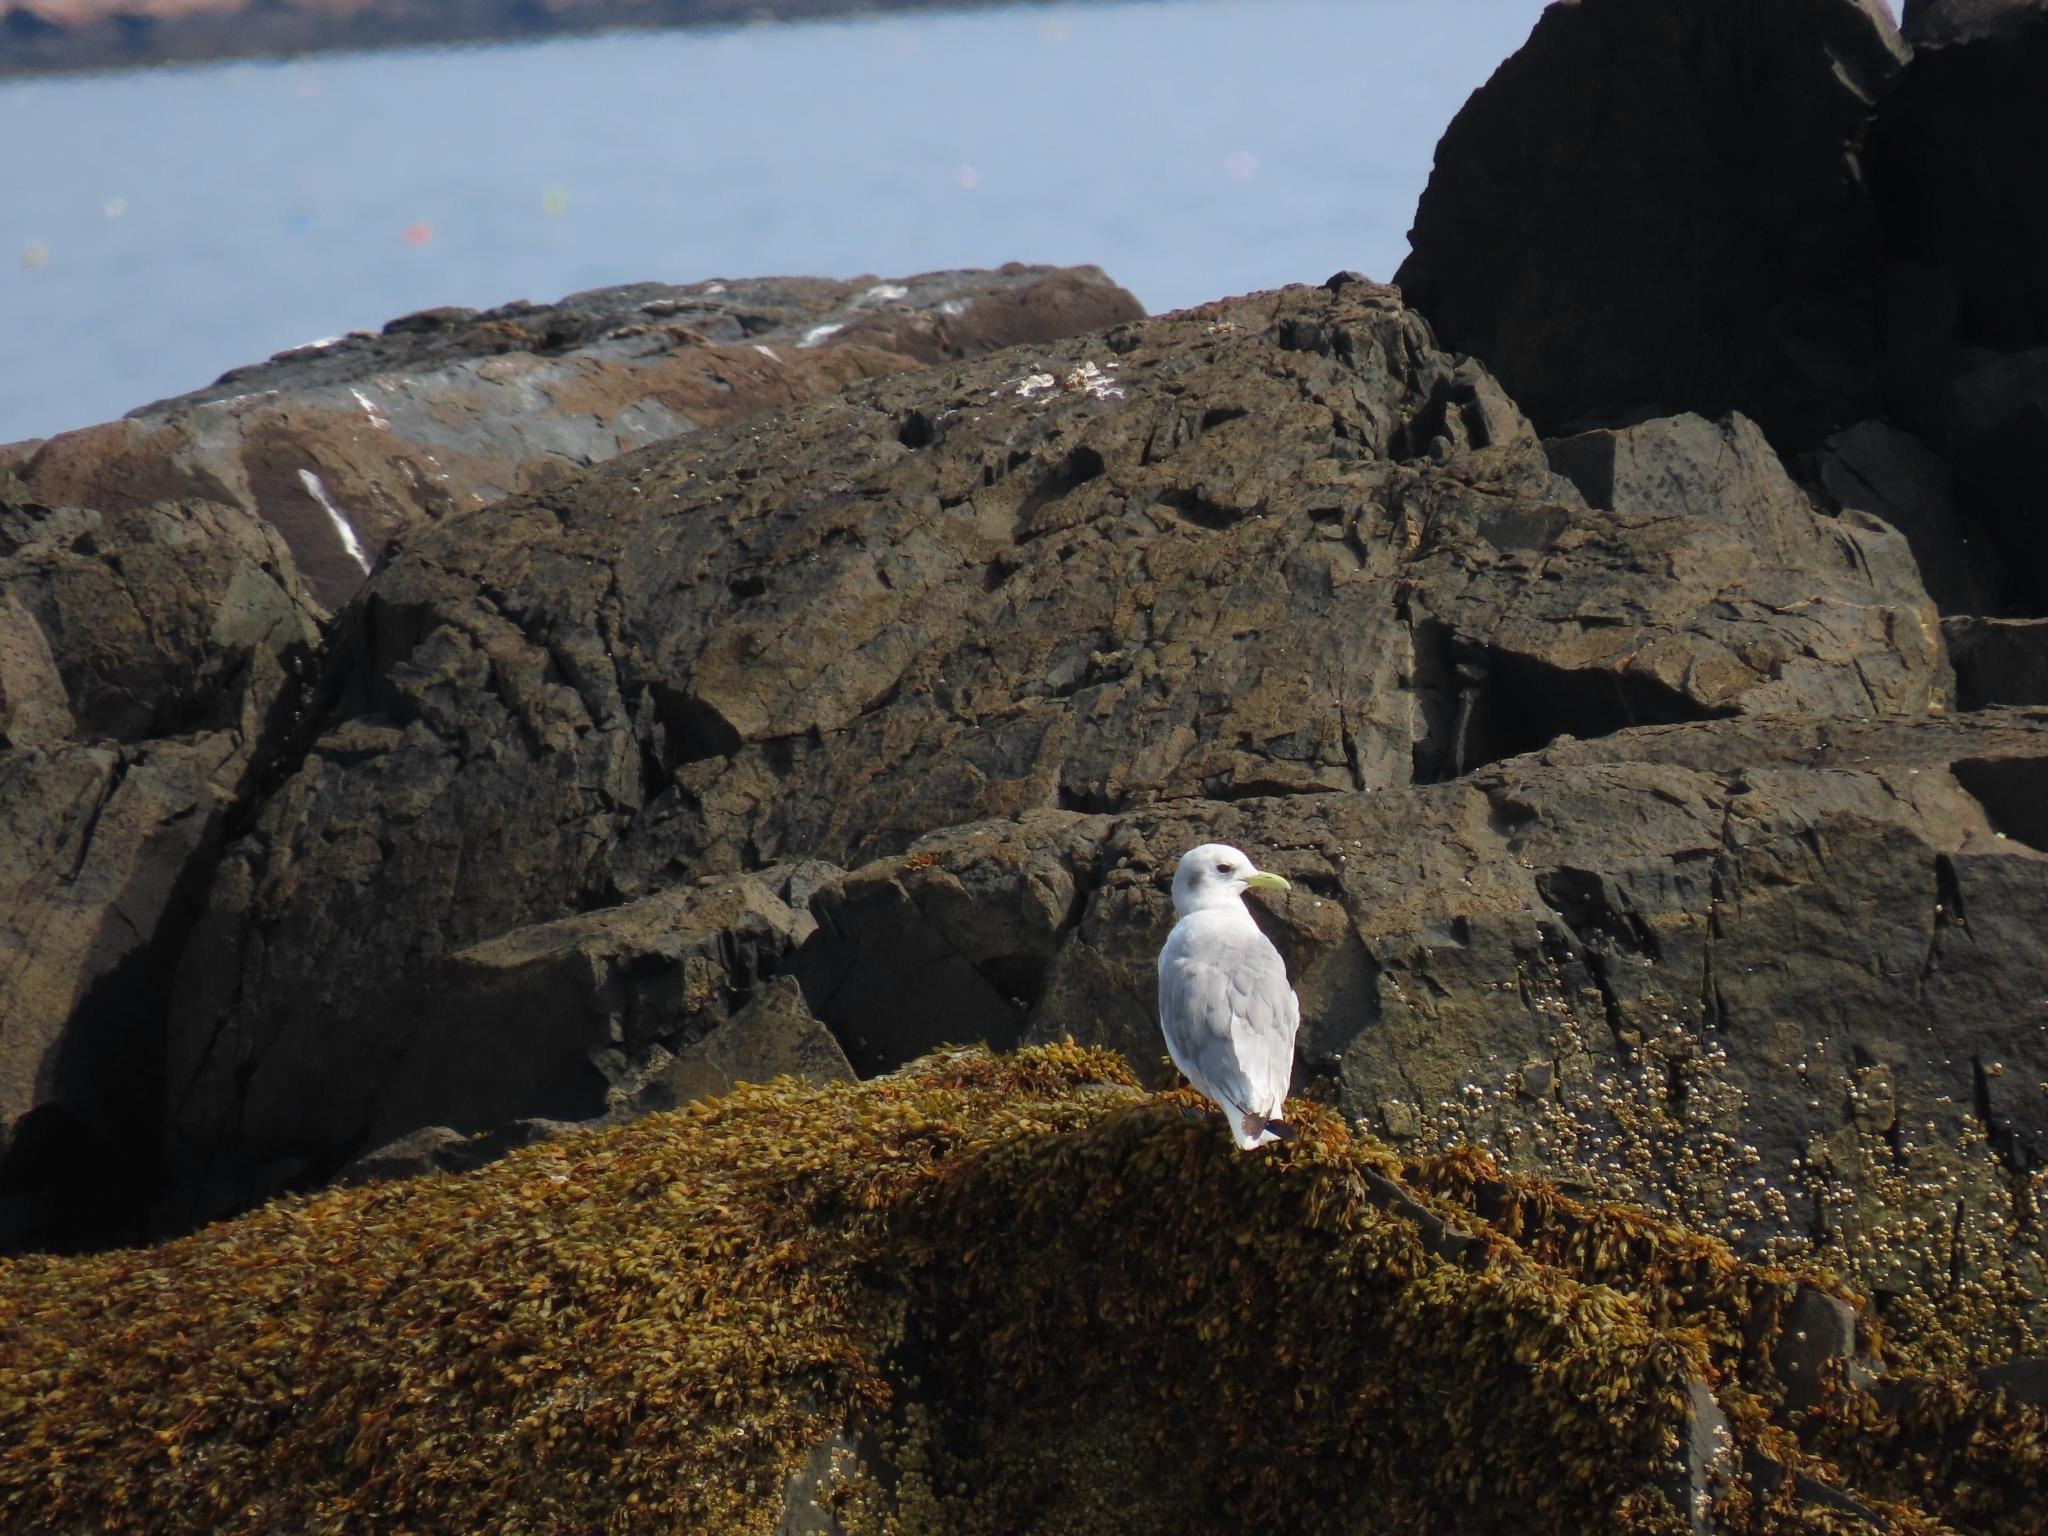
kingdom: Animalia
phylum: Chordata
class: Aves
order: Charadriiformes
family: Laridae
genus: Rissa
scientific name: Rissa tridactyla
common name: Black-legged kittiwake
